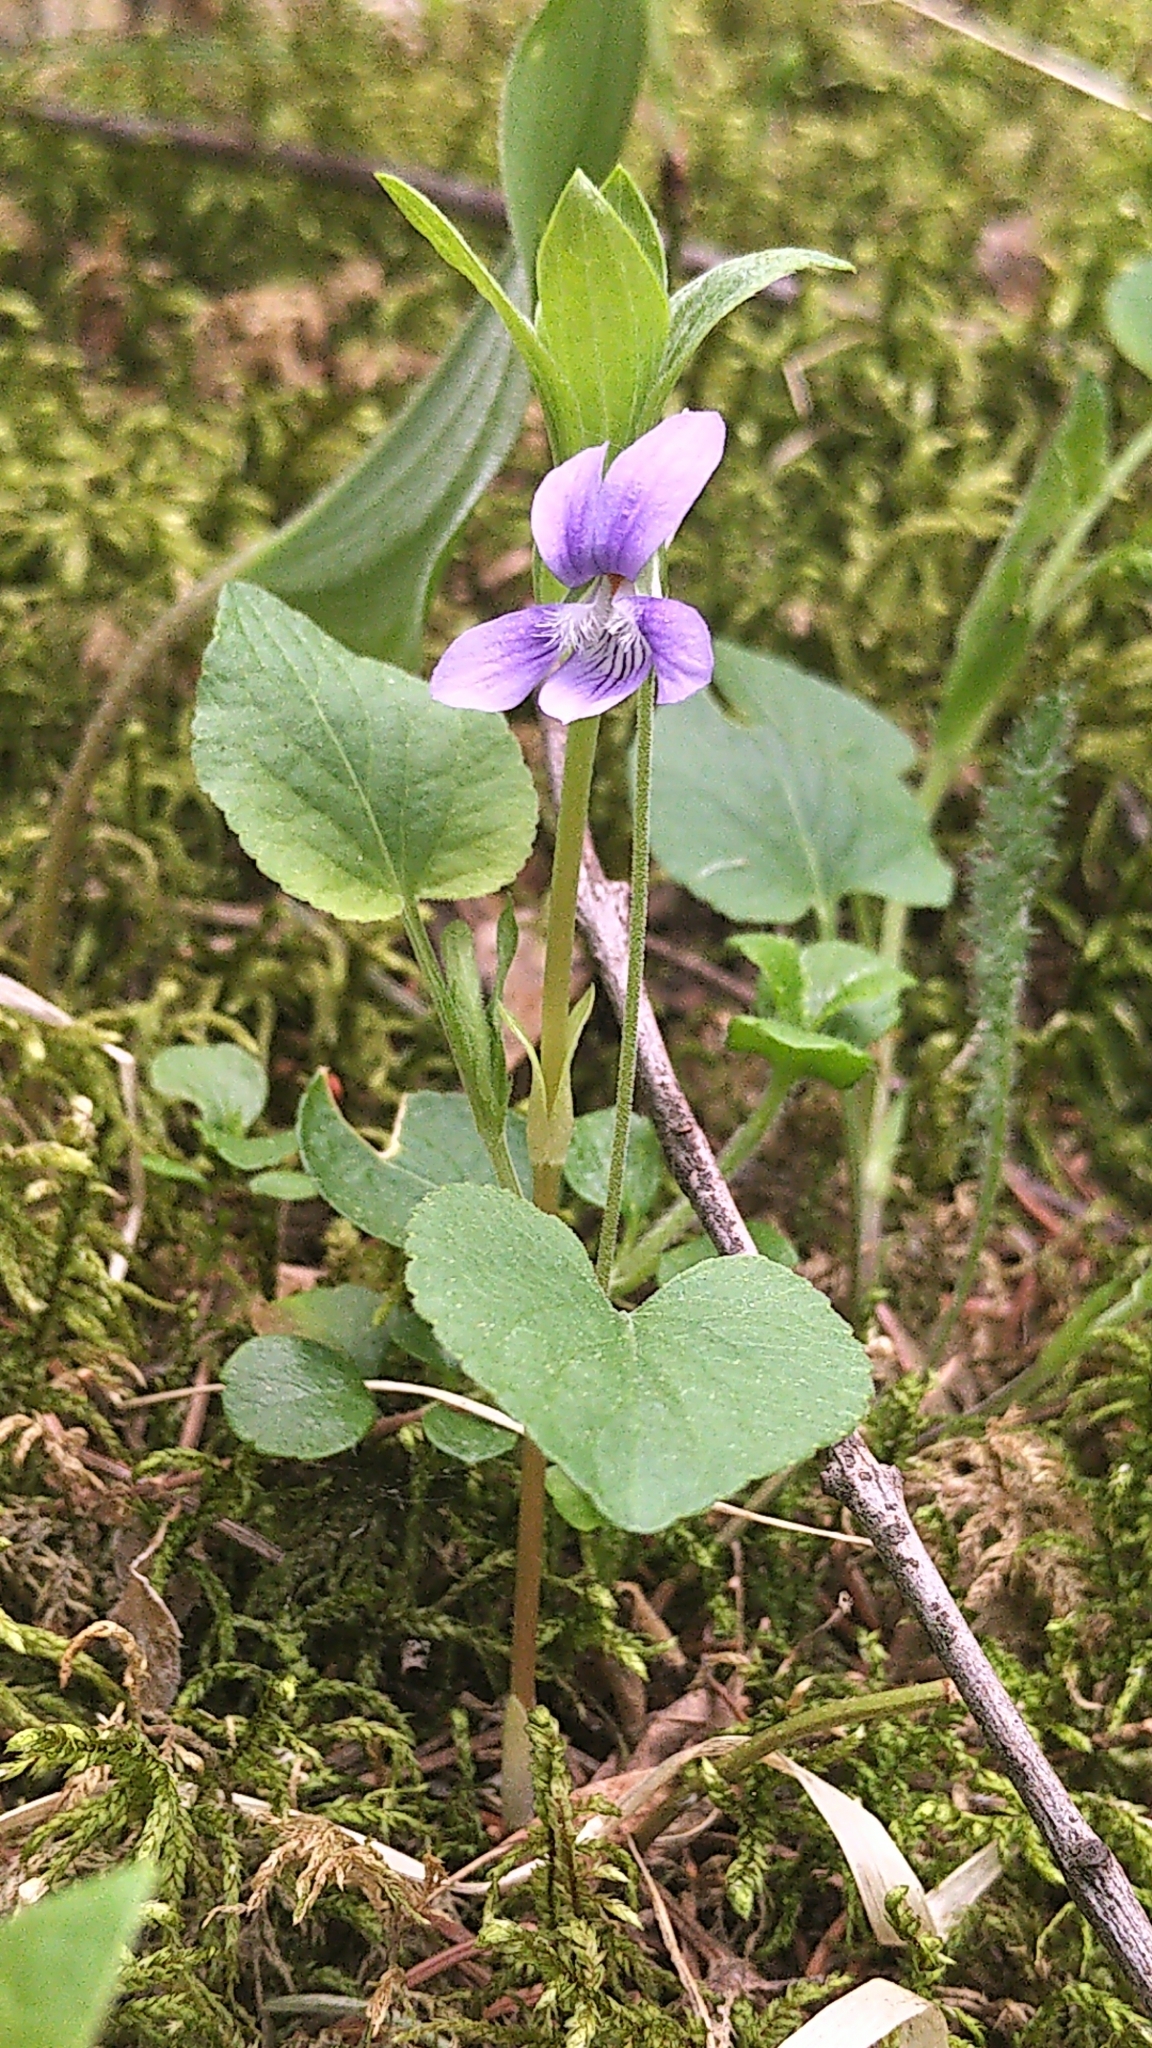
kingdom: Plantae
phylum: Tracheophyta
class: Magnoliopsida
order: Malpighiales
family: Violaceae
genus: Viola
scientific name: Viola adunca
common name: Sand violet
